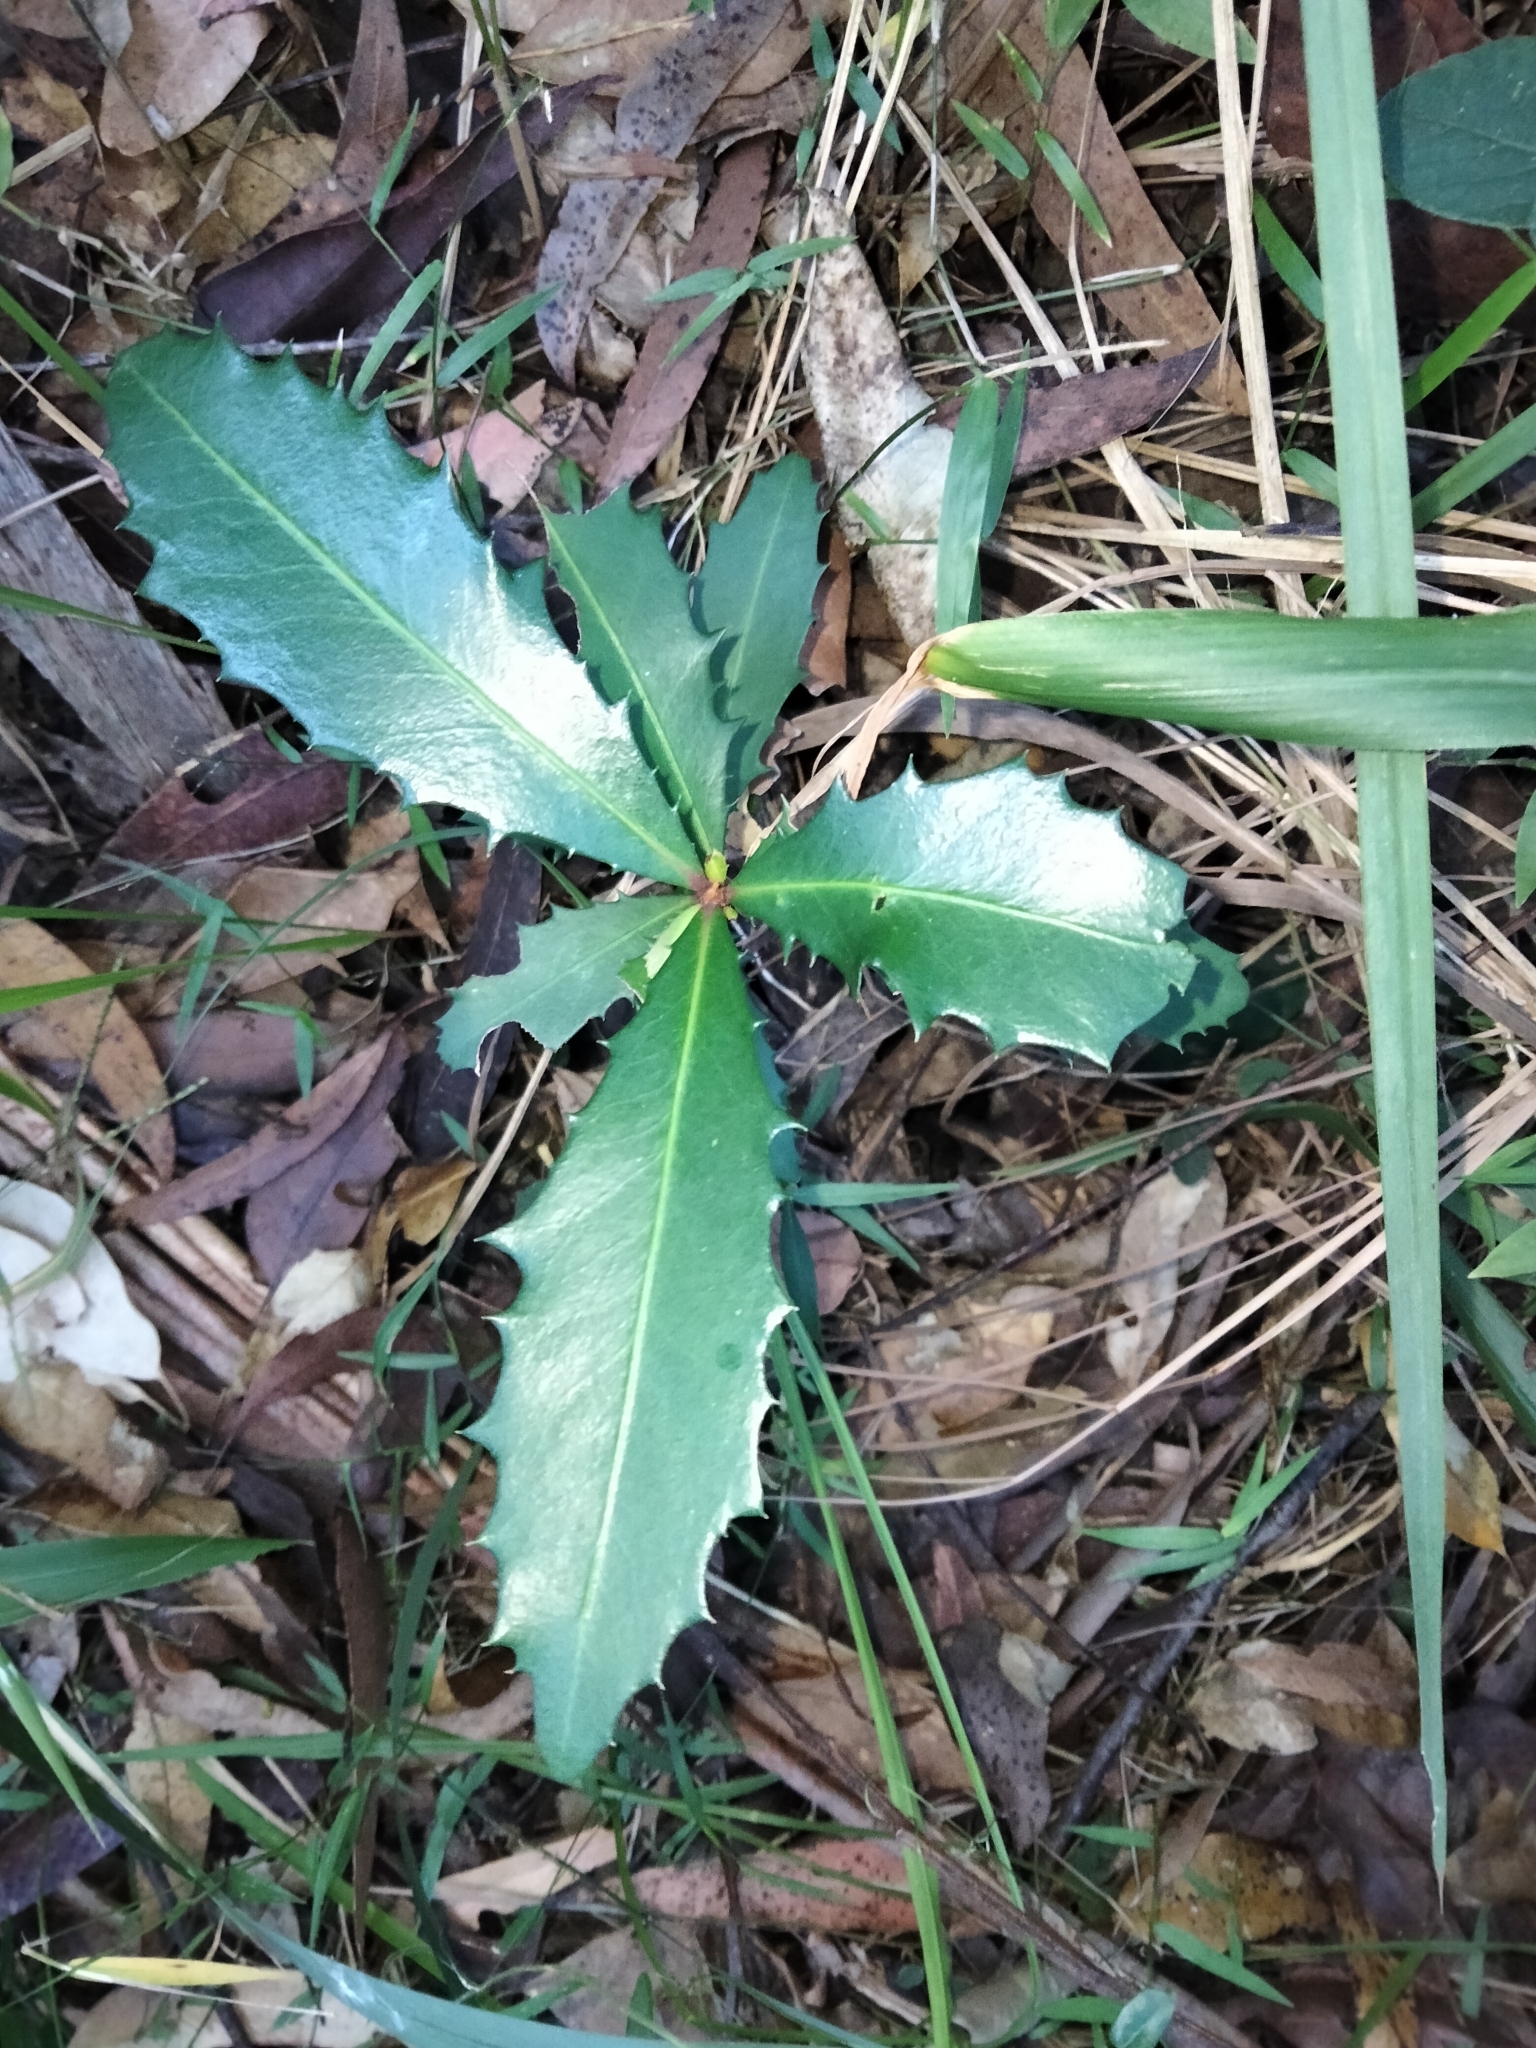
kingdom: Plantae
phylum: Tracheophyta
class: Magnoliopsida
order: Ericales
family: Primulaceae
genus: Myrsine
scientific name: Myrsine variabilis
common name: Brush muttonwood
